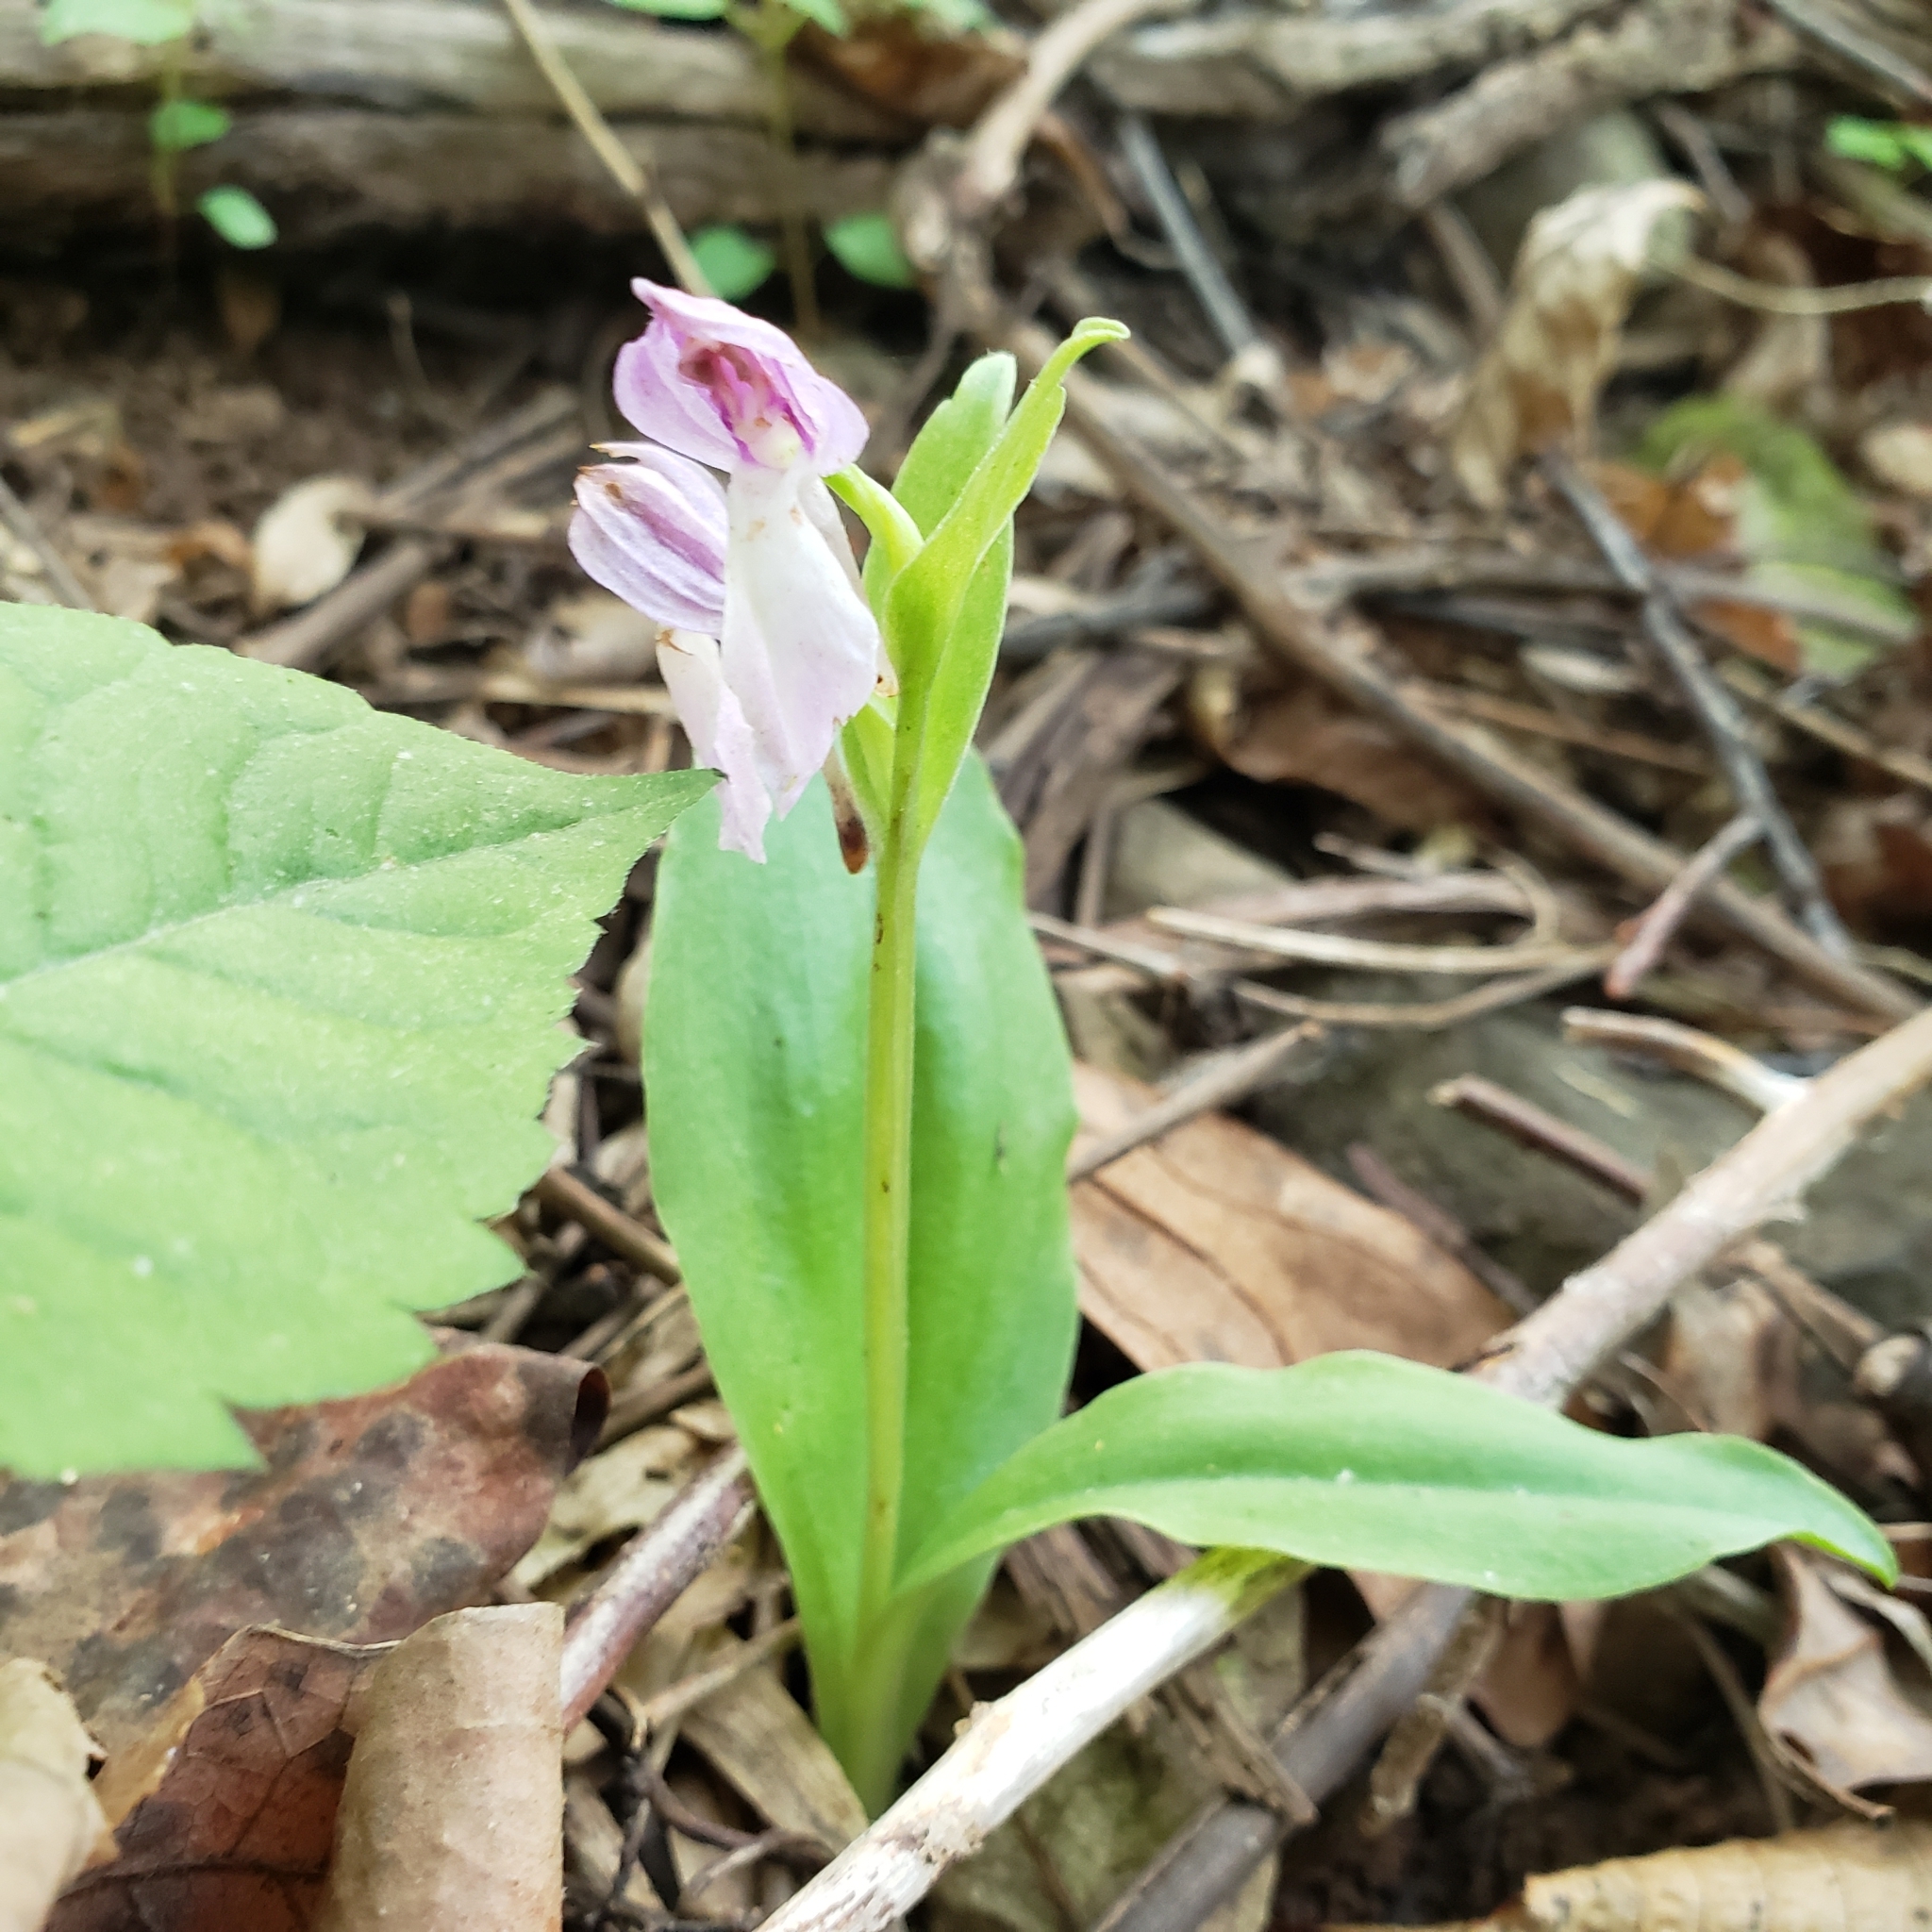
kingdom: Plantae
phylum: Tracheophyta
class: Liliopsida
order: Asparagales
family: Orchidaceae
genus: Galearis
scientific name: Galearis spectabilis
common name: Purple-hooded orchis
